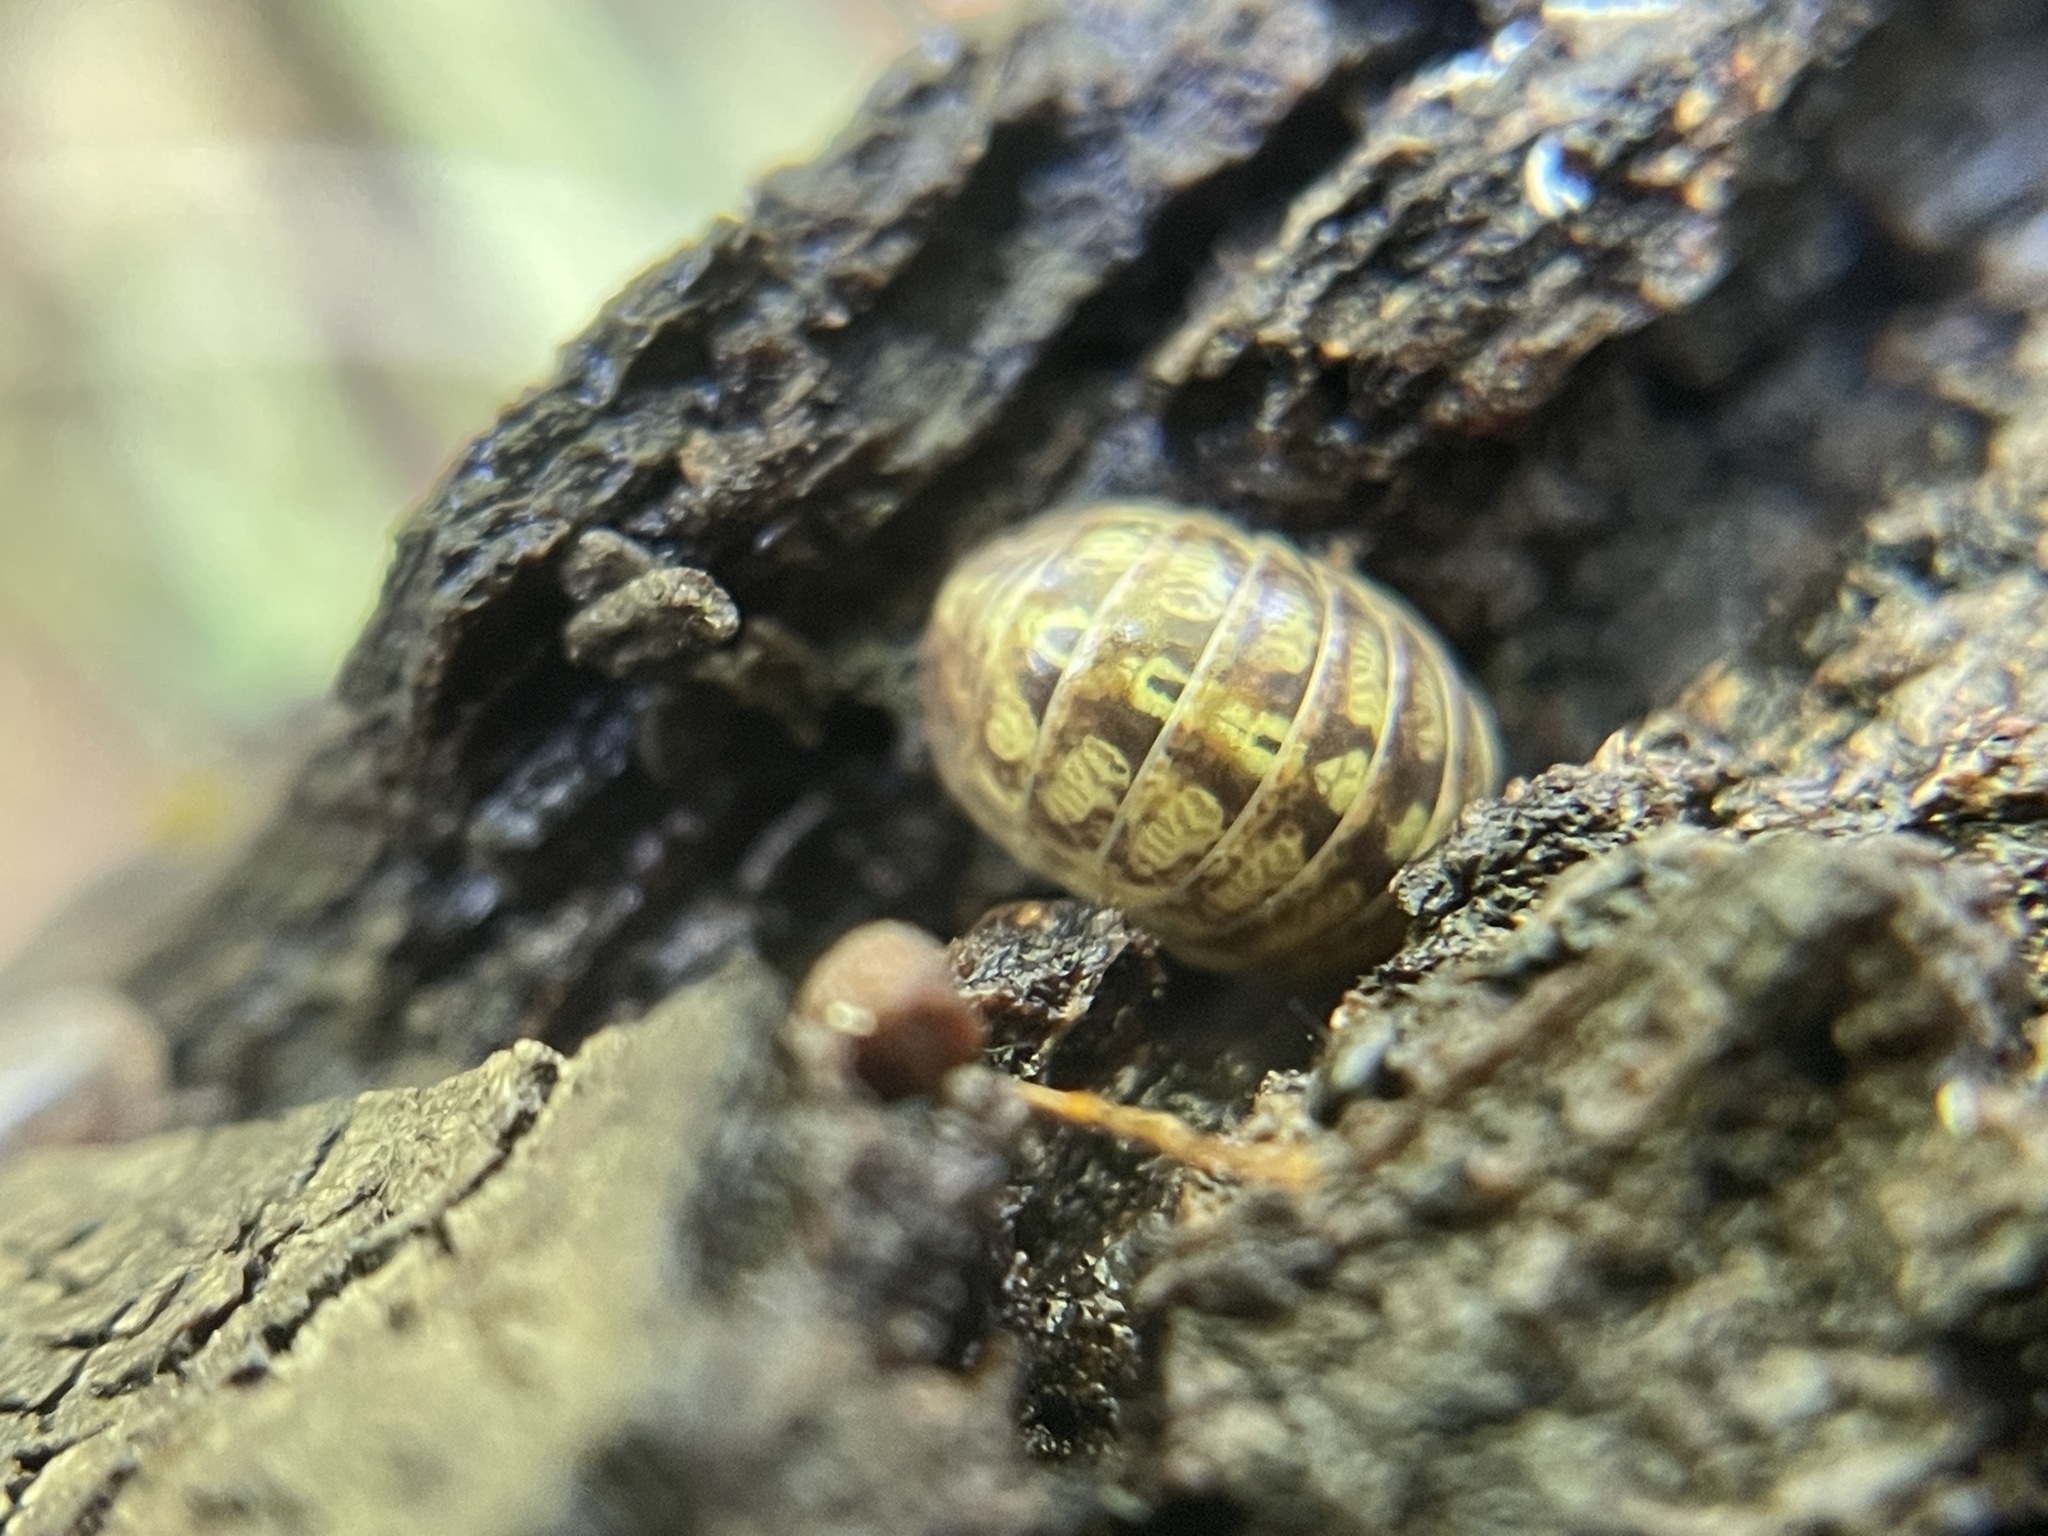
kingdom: Animalia
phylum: Arthropoda
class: Malacostraca
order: Isopoda
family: Armadillidiidae
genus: Armadillidium
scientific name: Armadillidium vulgare
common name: Common pill woodlouse
